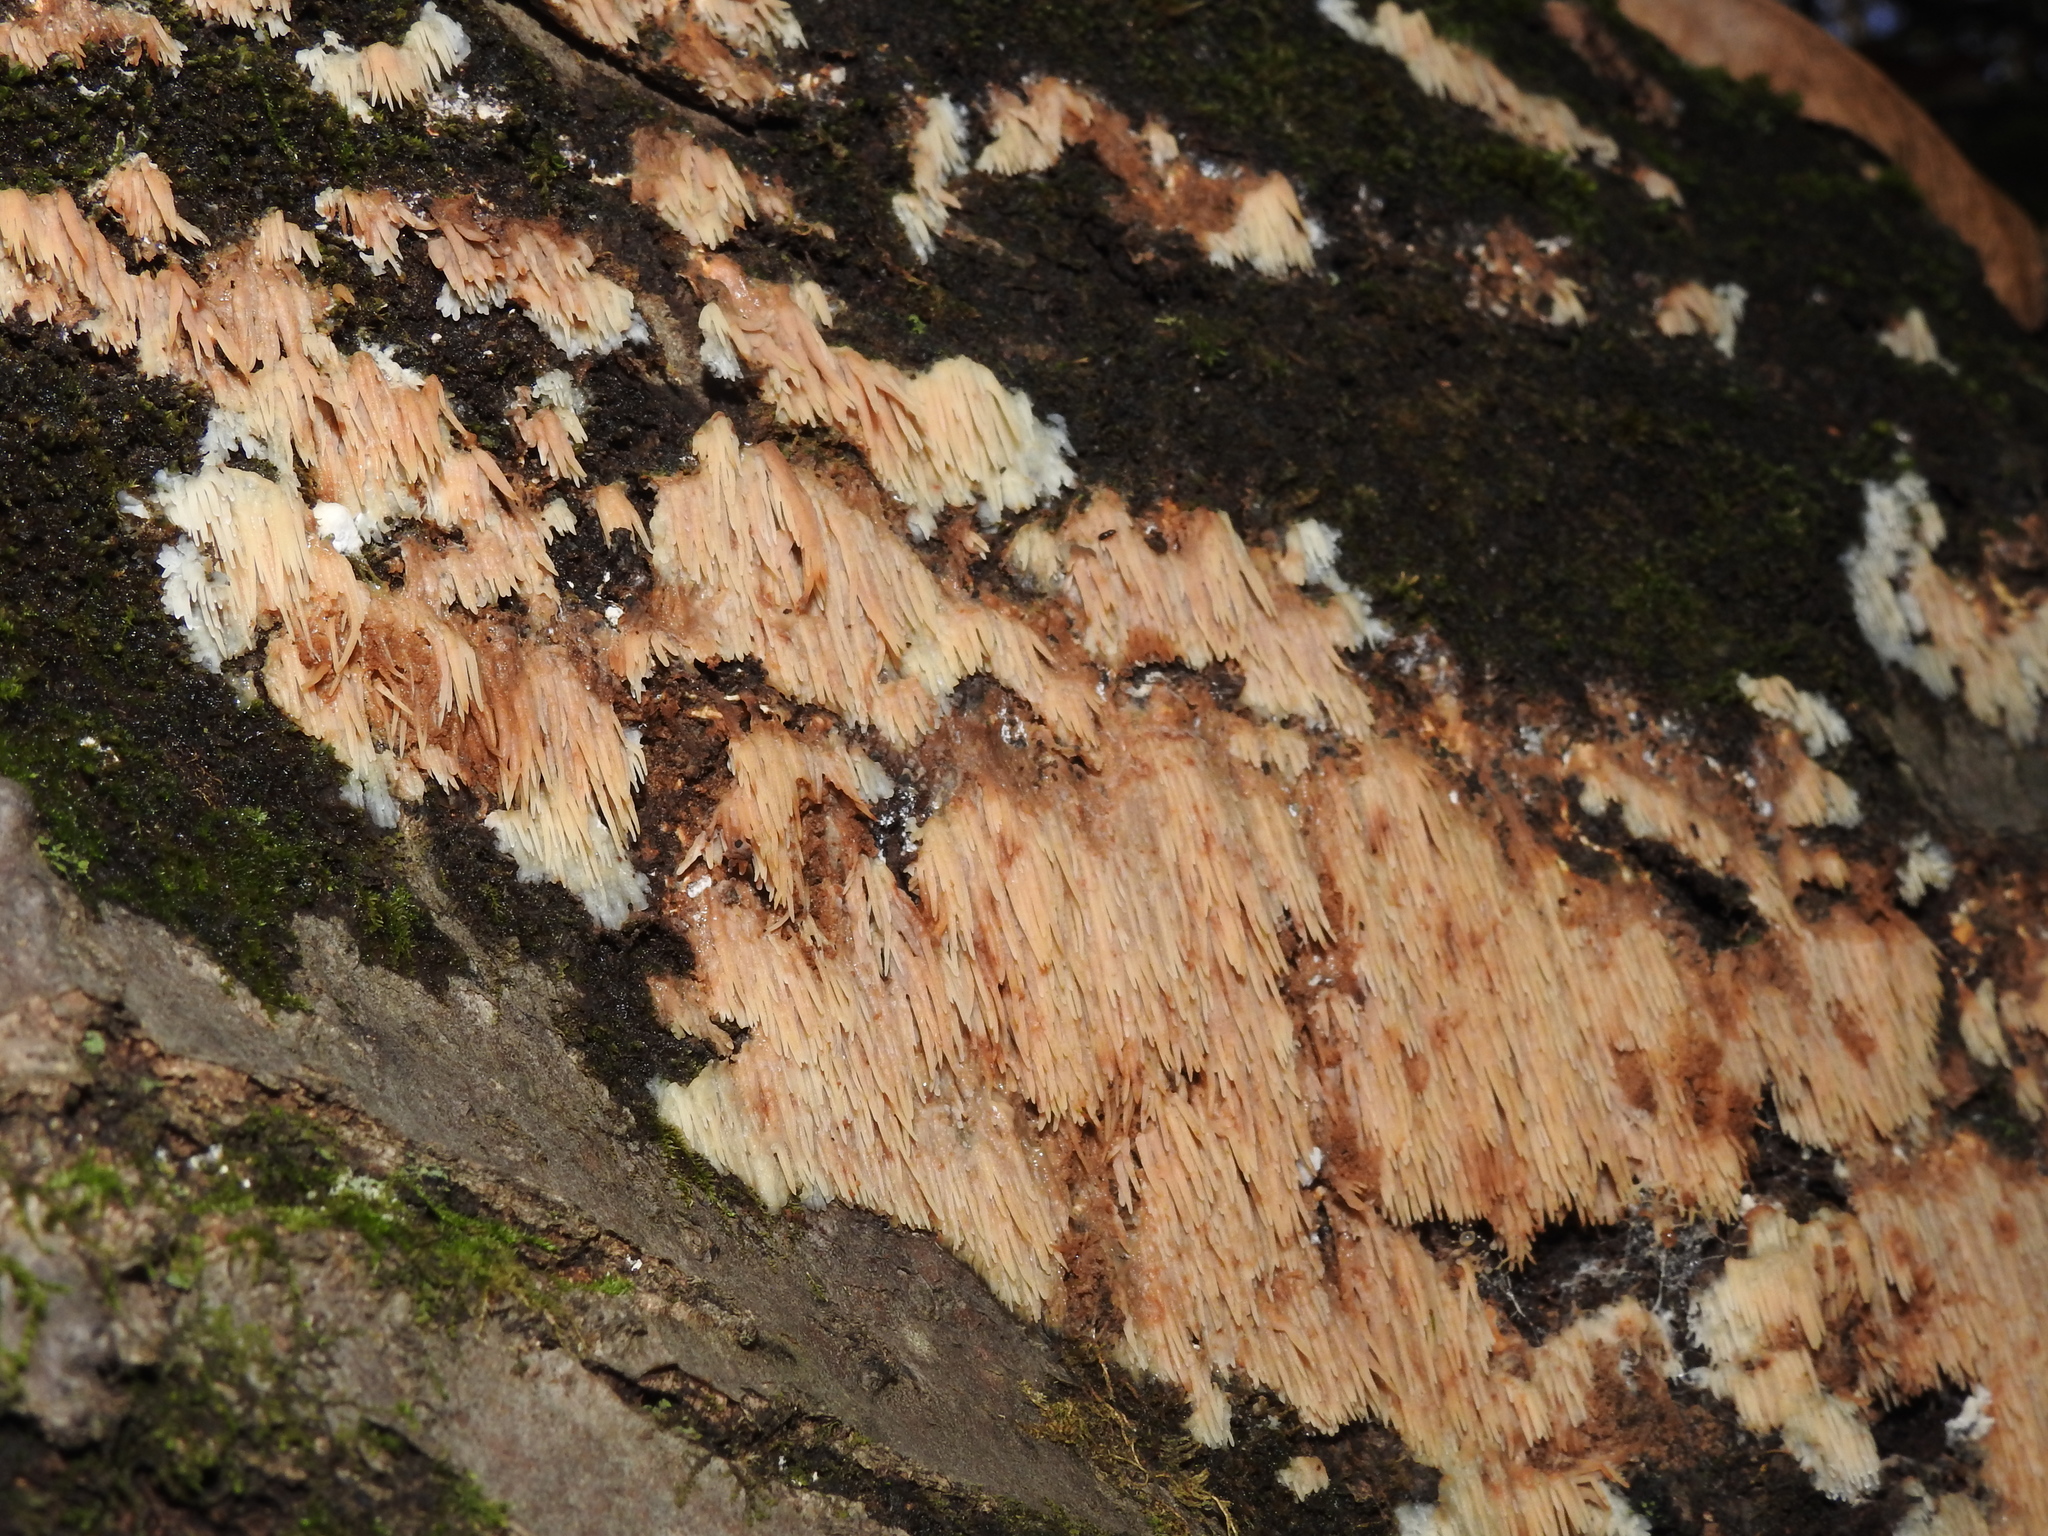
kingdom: Fungi
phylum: Basidiomycota
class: Agaricomycetes
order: Agaricales
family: Radulomycetaceae
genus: Radulomyces
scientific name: Radulomyces copelandii
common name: Asian beauty
